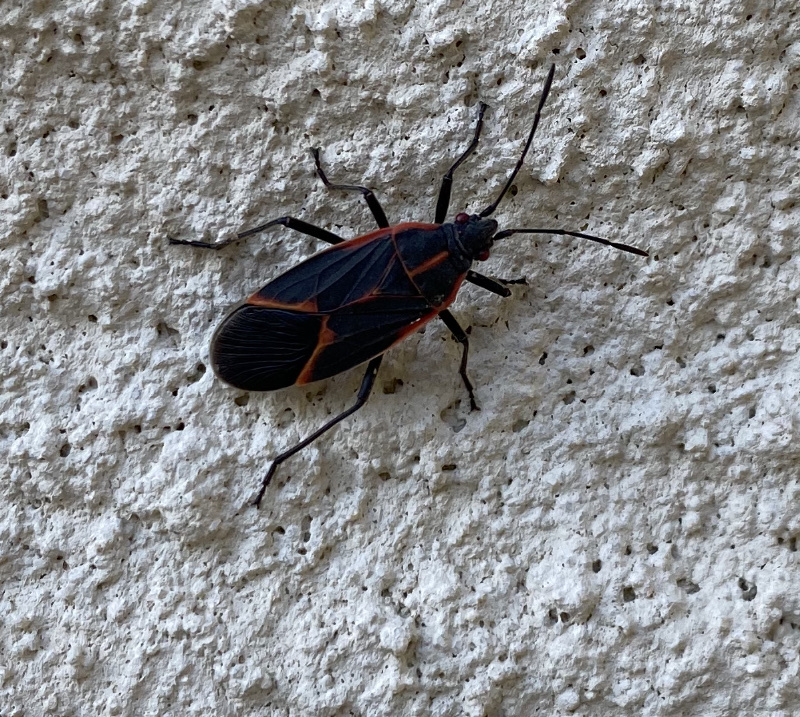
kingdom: Animalia
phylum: Arthropoda
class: Insecta
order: Hemiptera
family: Rhopalidae
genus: Boisea
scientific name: Boisea trivittata
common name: Boxelder bug
